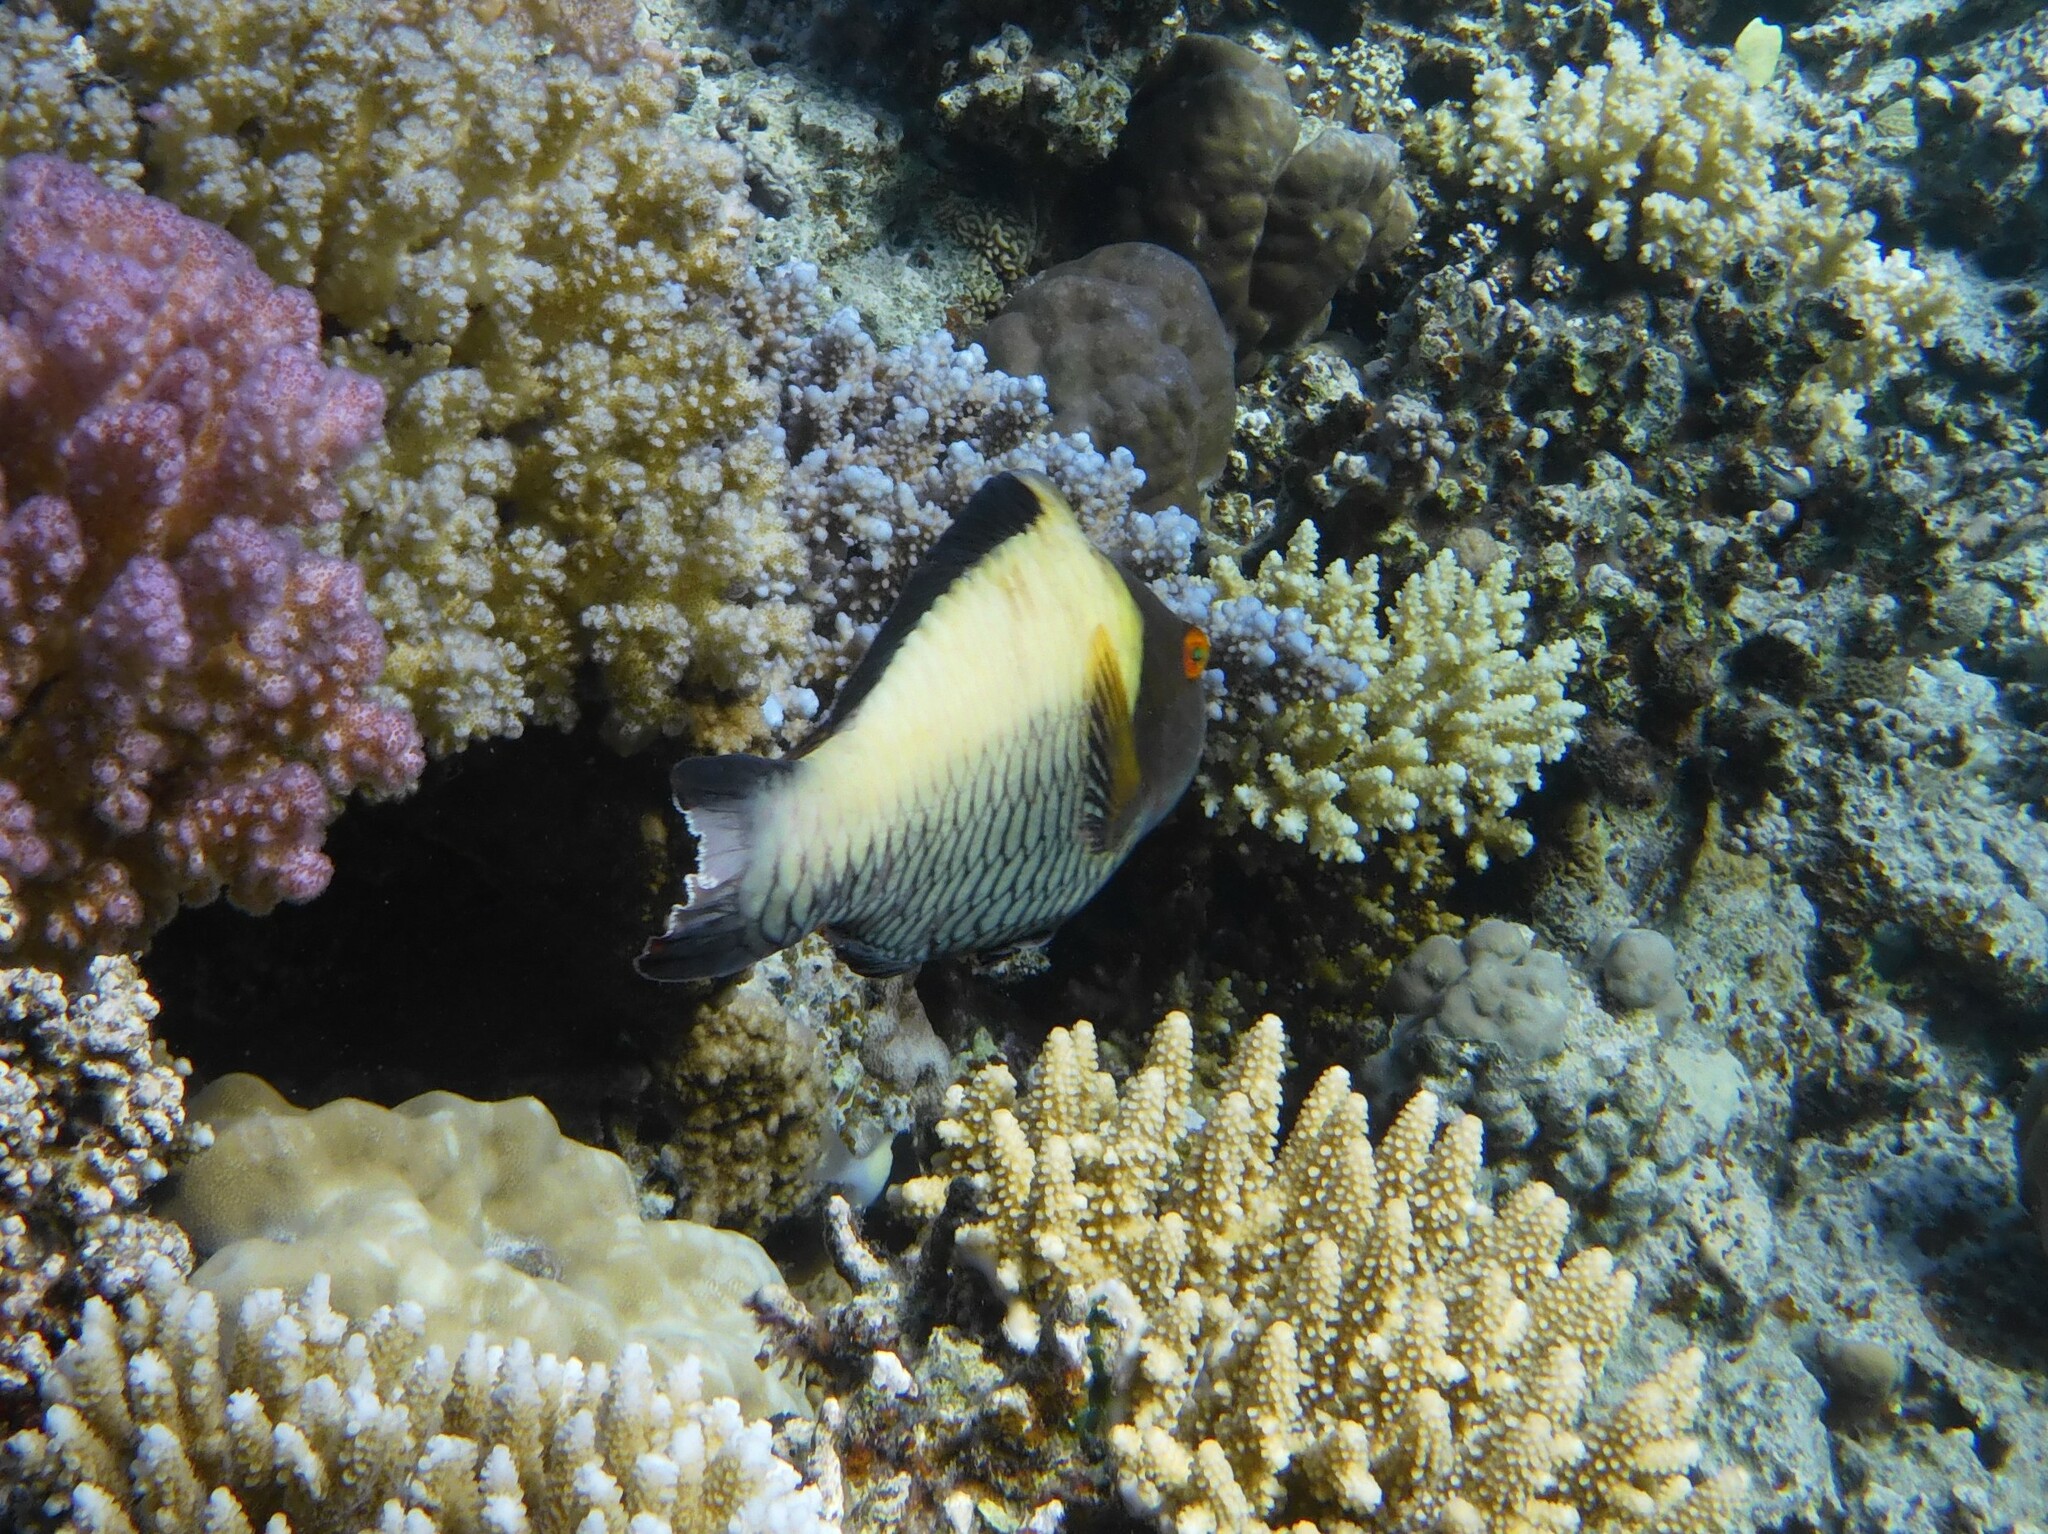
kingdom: Animalia
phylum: Chordata
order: Perciformes
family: Scaridae
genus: Cetoscarus
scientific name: Cetoscarus bicolor
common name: Bicolour parrotfish
